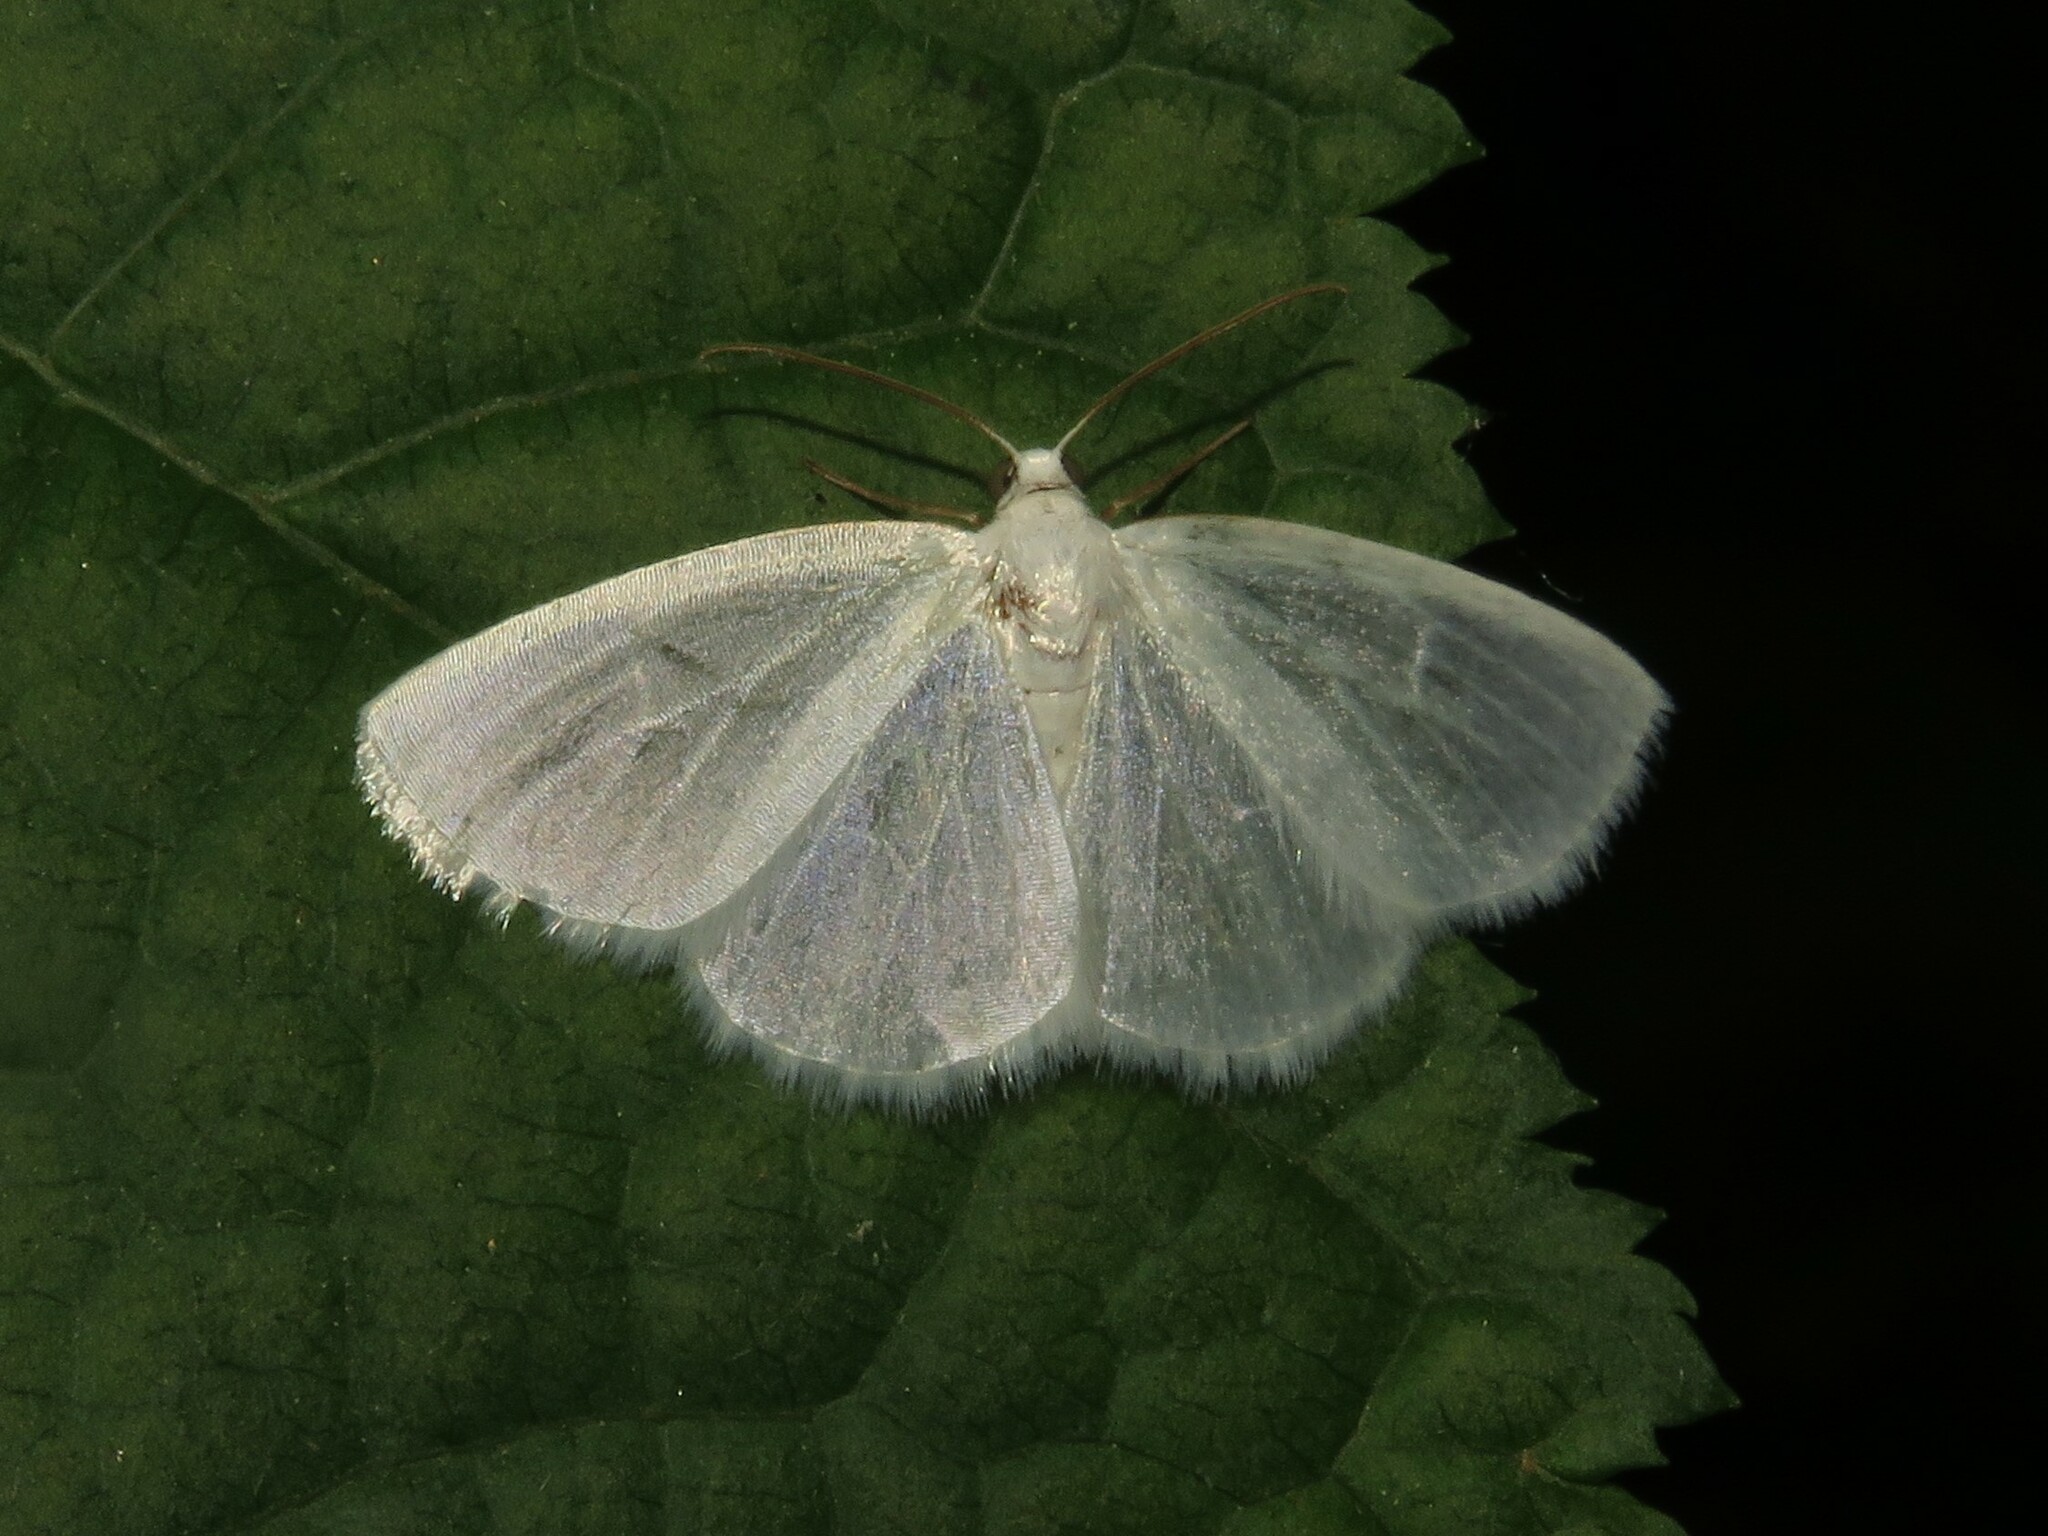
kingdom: Animalia
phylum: Arthropoda
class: Insecta
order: Lepidoptera
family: Geometridae
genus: Lomographa
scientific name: Lomographa vestaliata
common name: White spring moth
